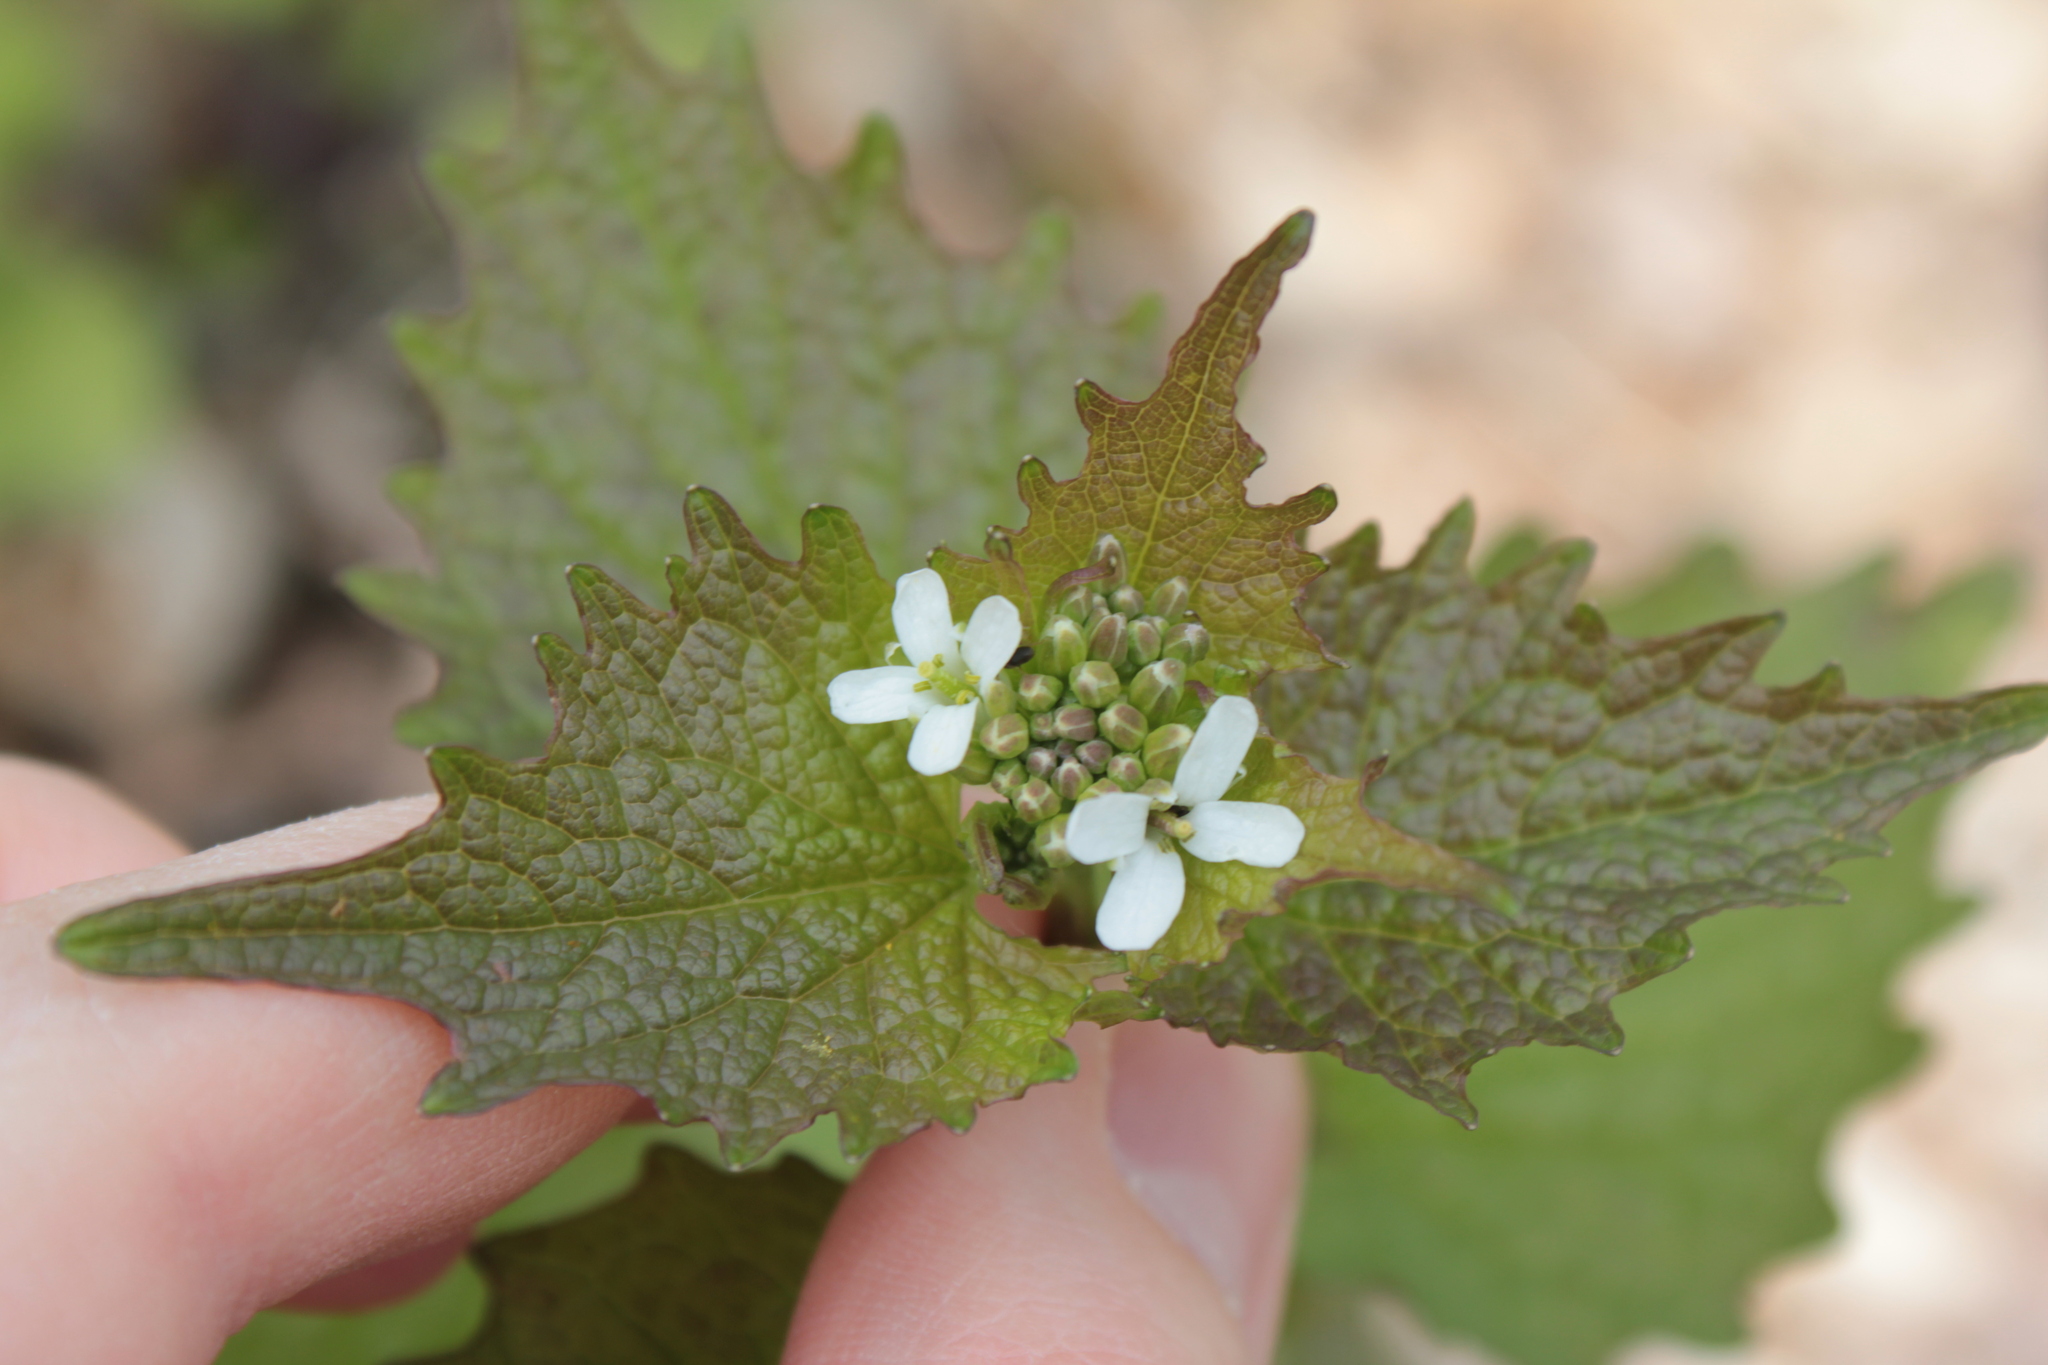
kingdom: Plantae
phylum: Tracheophyta
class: Magnoliopsida
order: Brassicales
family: Brassicaceae
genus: Alliaria
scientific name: Alliaria petiolata
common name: Garlic mustard
